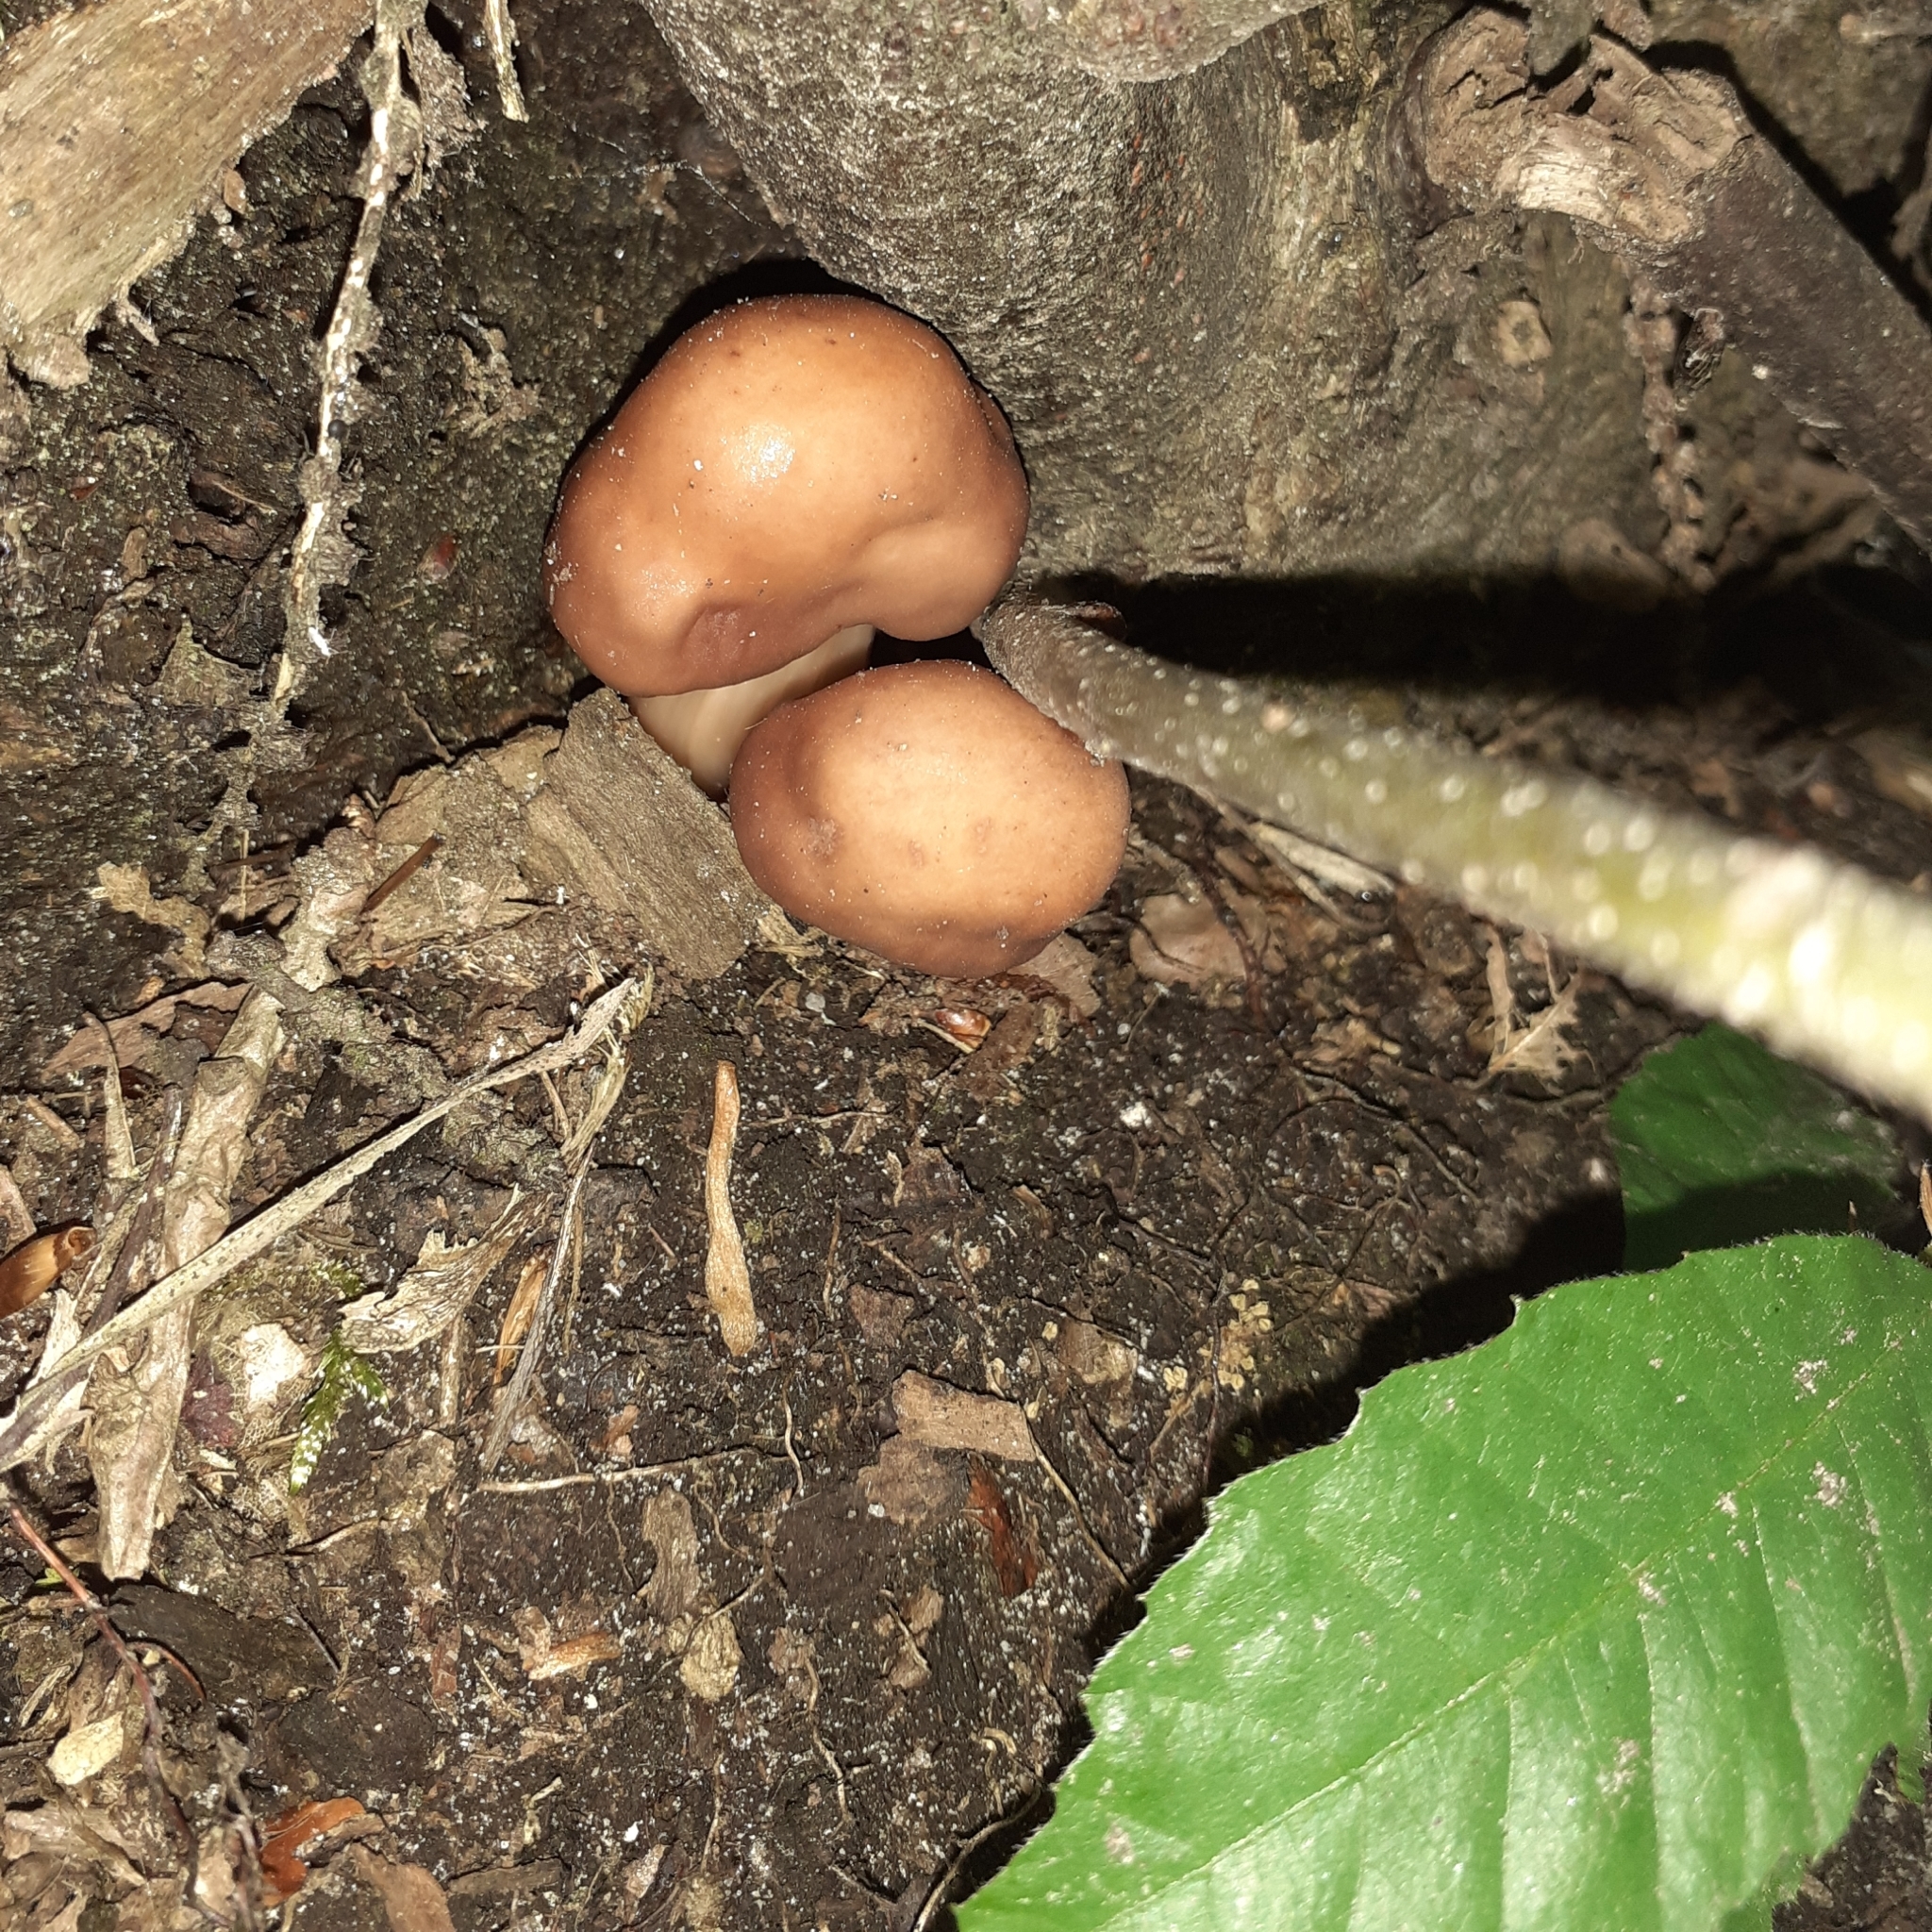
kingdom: Fungi
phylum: Basidiomycota
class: Agaricomycetes
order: Agaricales
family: Omphalotaceae
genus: Gymnopus
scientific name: Gymnopus fusipes
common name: Spindle shank
